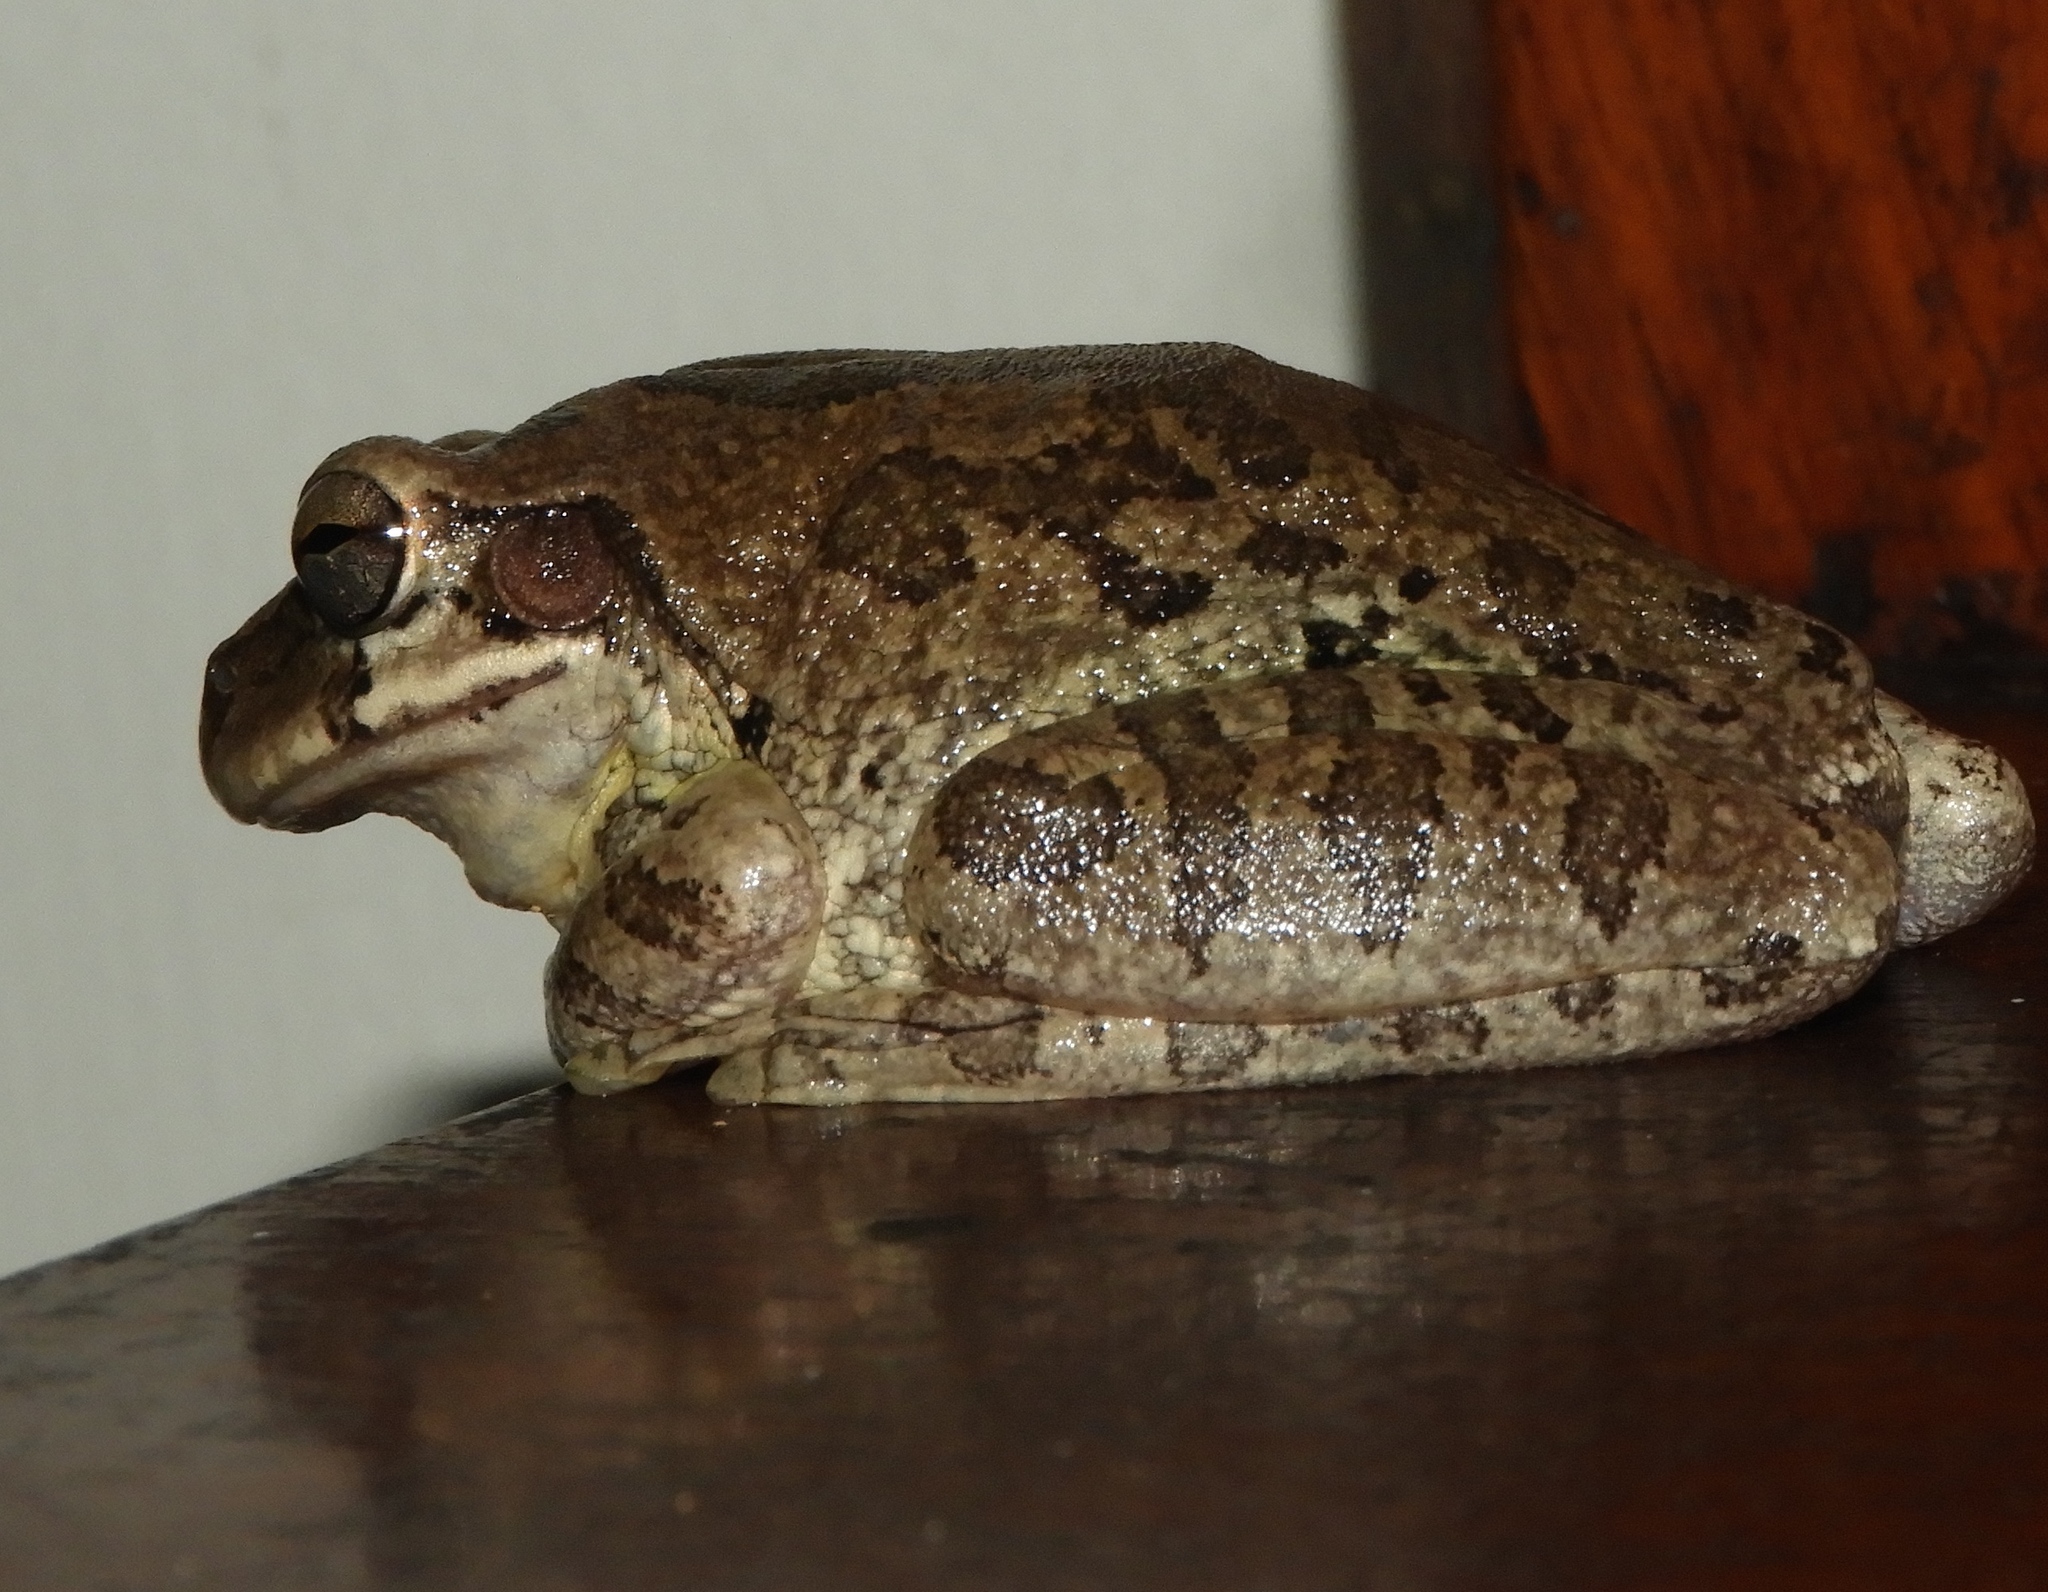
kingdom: Animalia
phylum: Chordata
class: Amphibia
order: Anura
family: Hylidae
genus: Smilisca
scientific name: Smilisca baudinii
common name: Mexican smilisca
